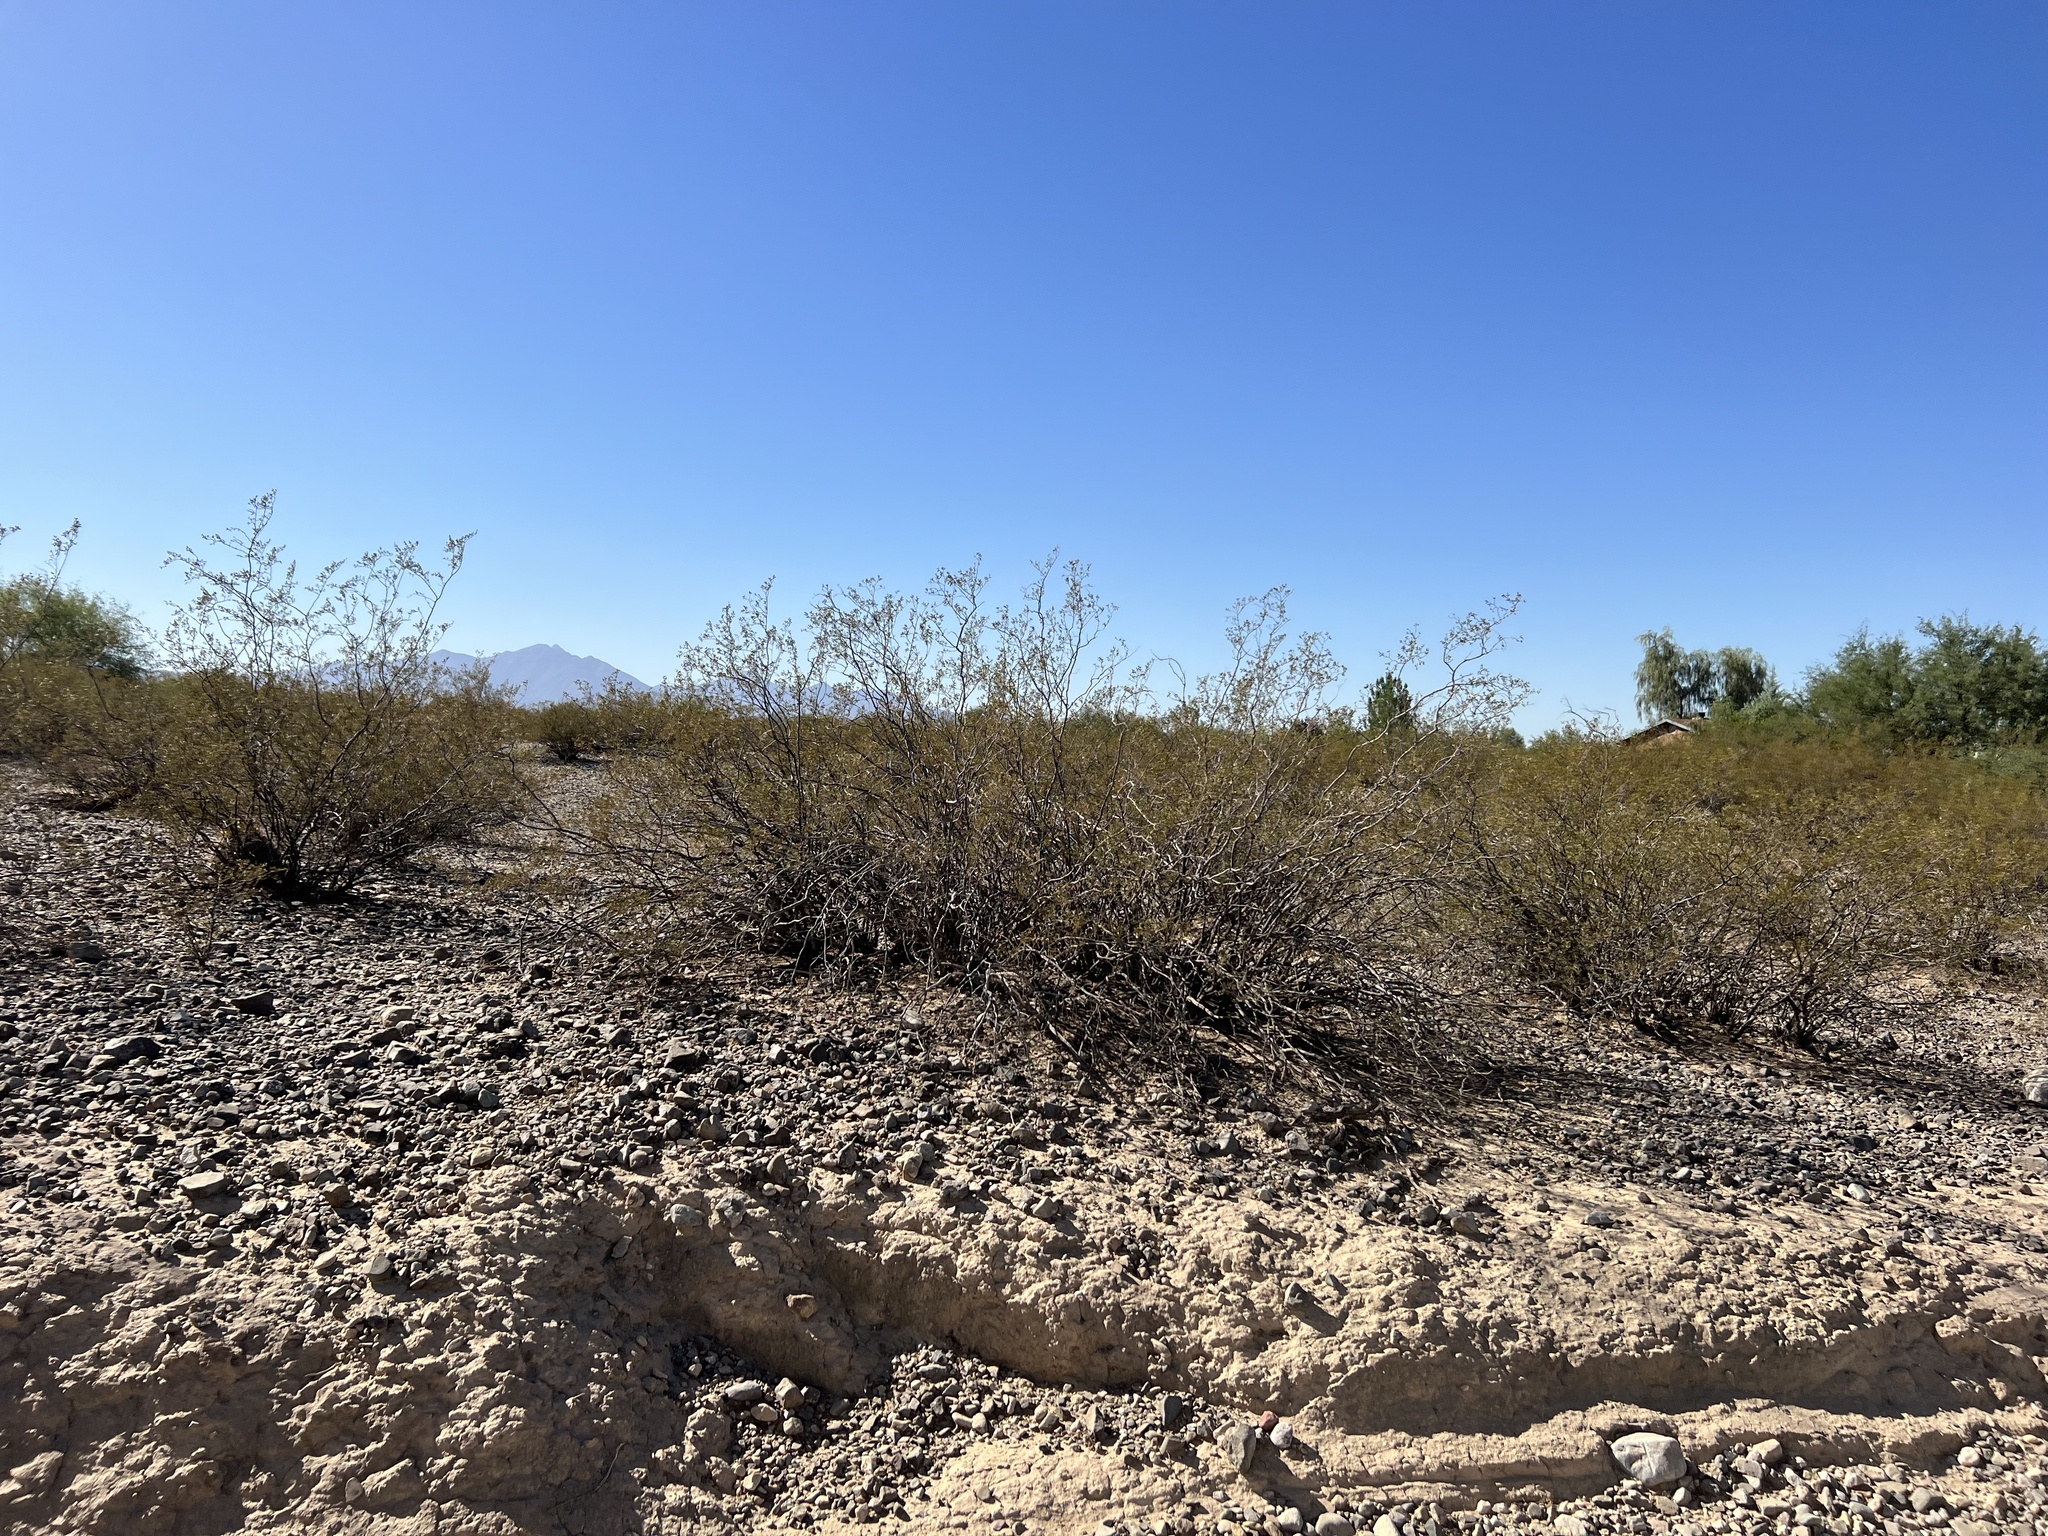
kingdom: Plantae
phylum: Tracheophyta
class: Magnoliopsida
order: Zygophyllales
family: Zygophyllaceae
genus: Larrea
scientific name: Larrea tridentata
